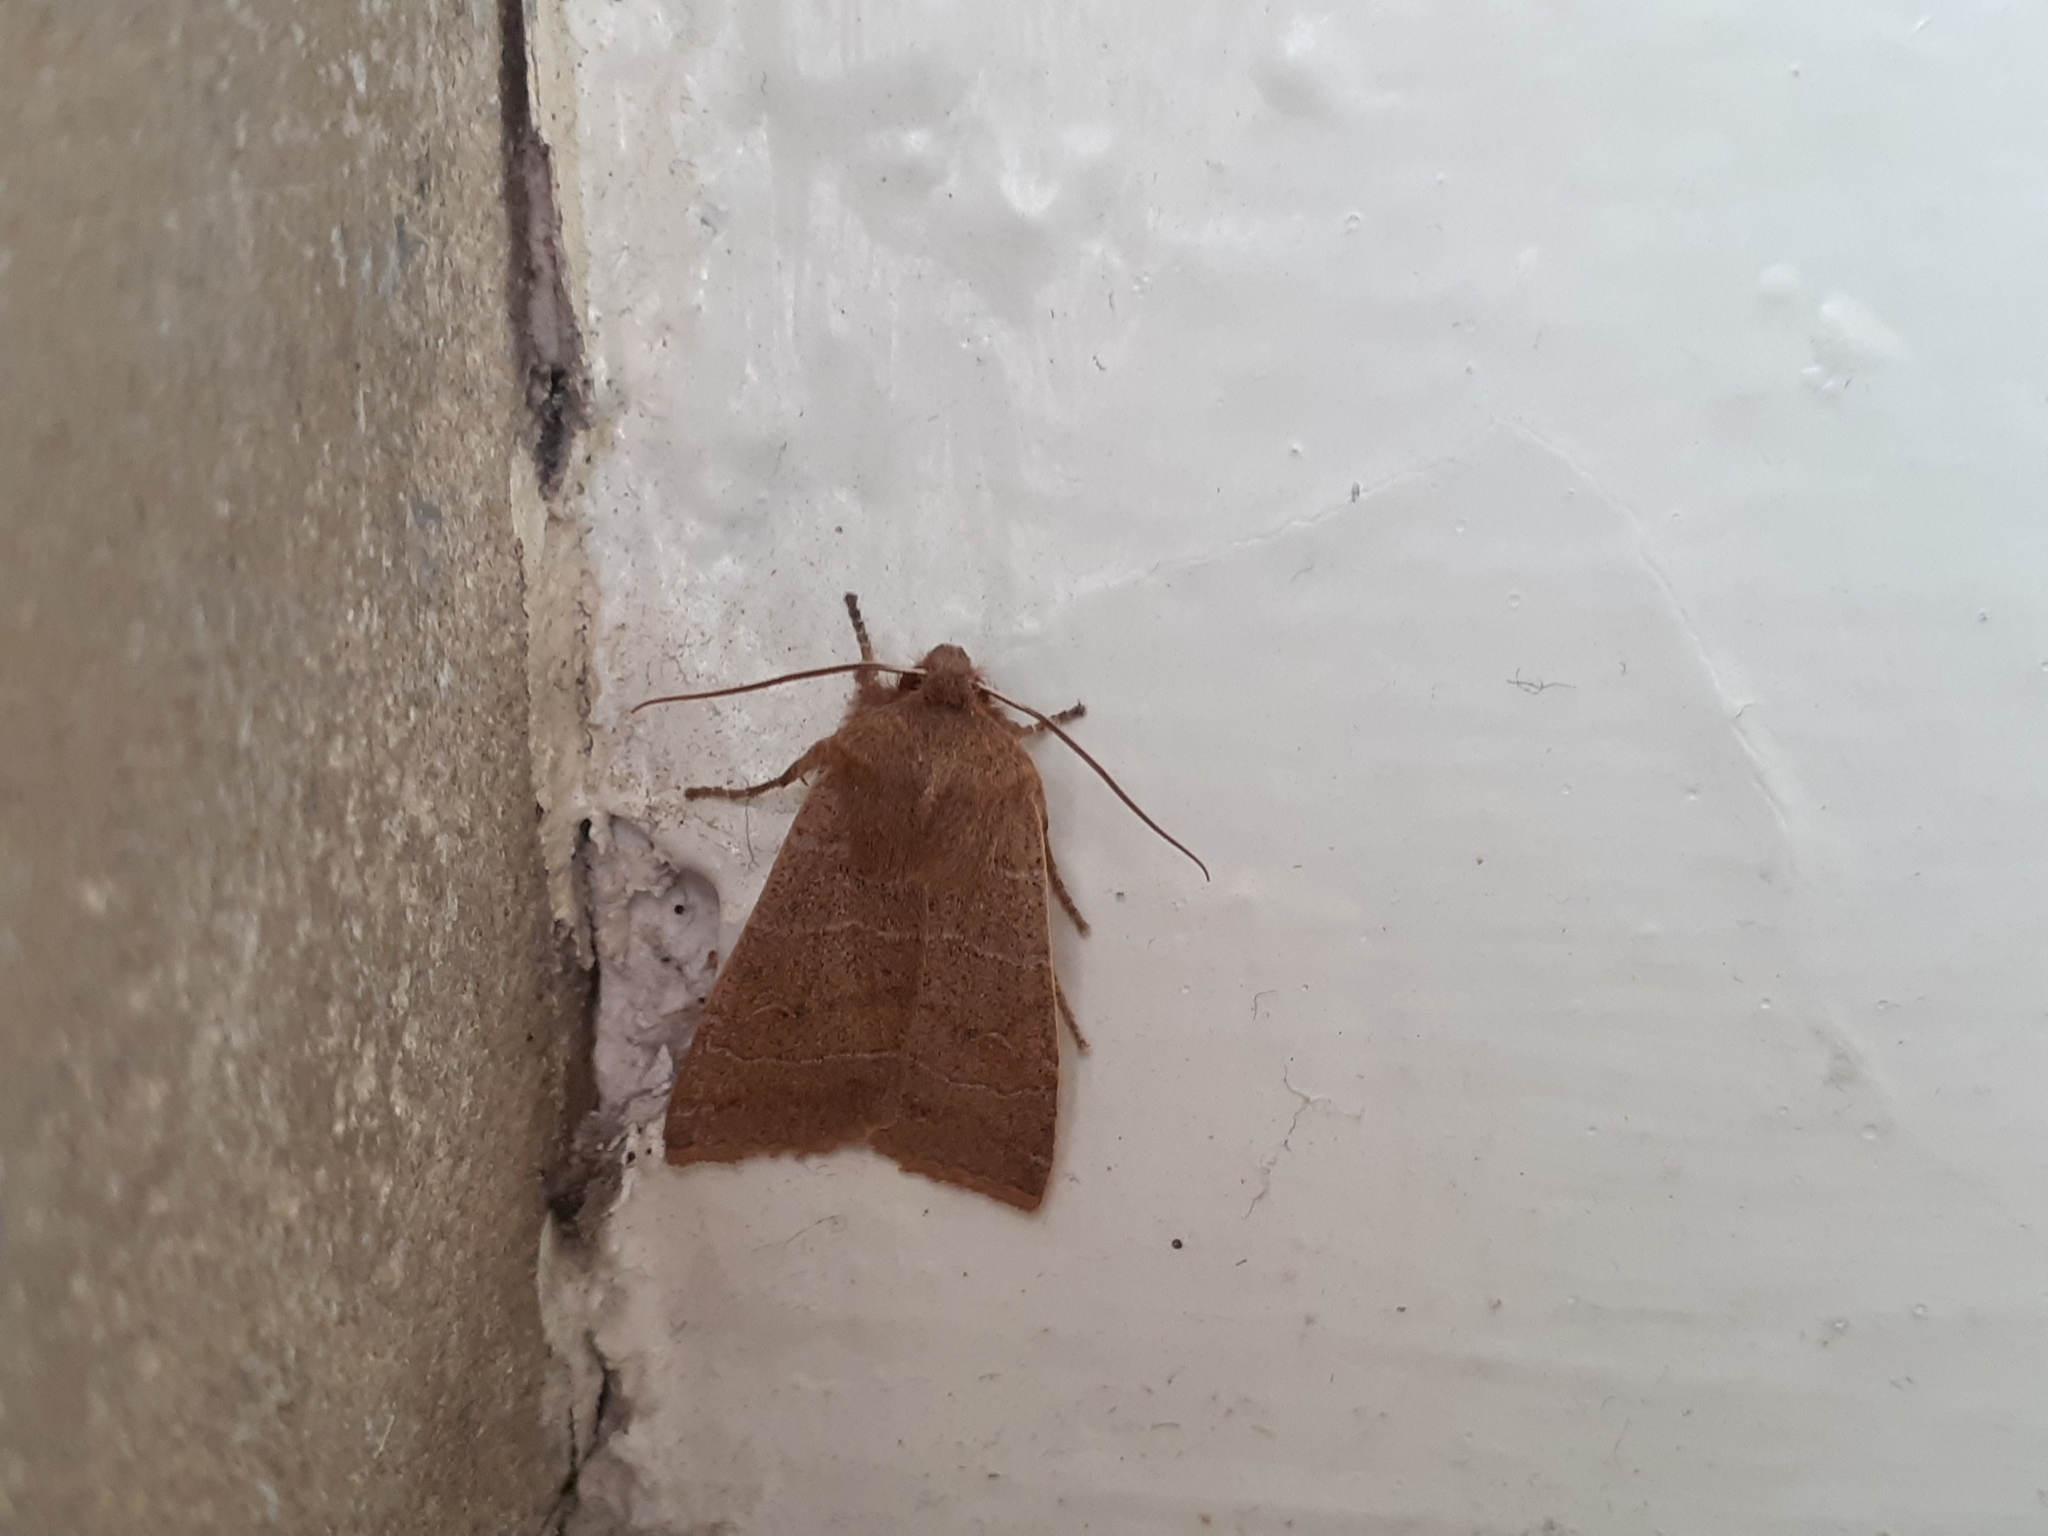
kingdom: Animalia
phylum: Arthropoda
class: Insecta
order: Lepidoptera
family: Noctuidae
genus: Eupsilia
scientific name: Eupsilia morrisoni
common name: Morrison's sallow
